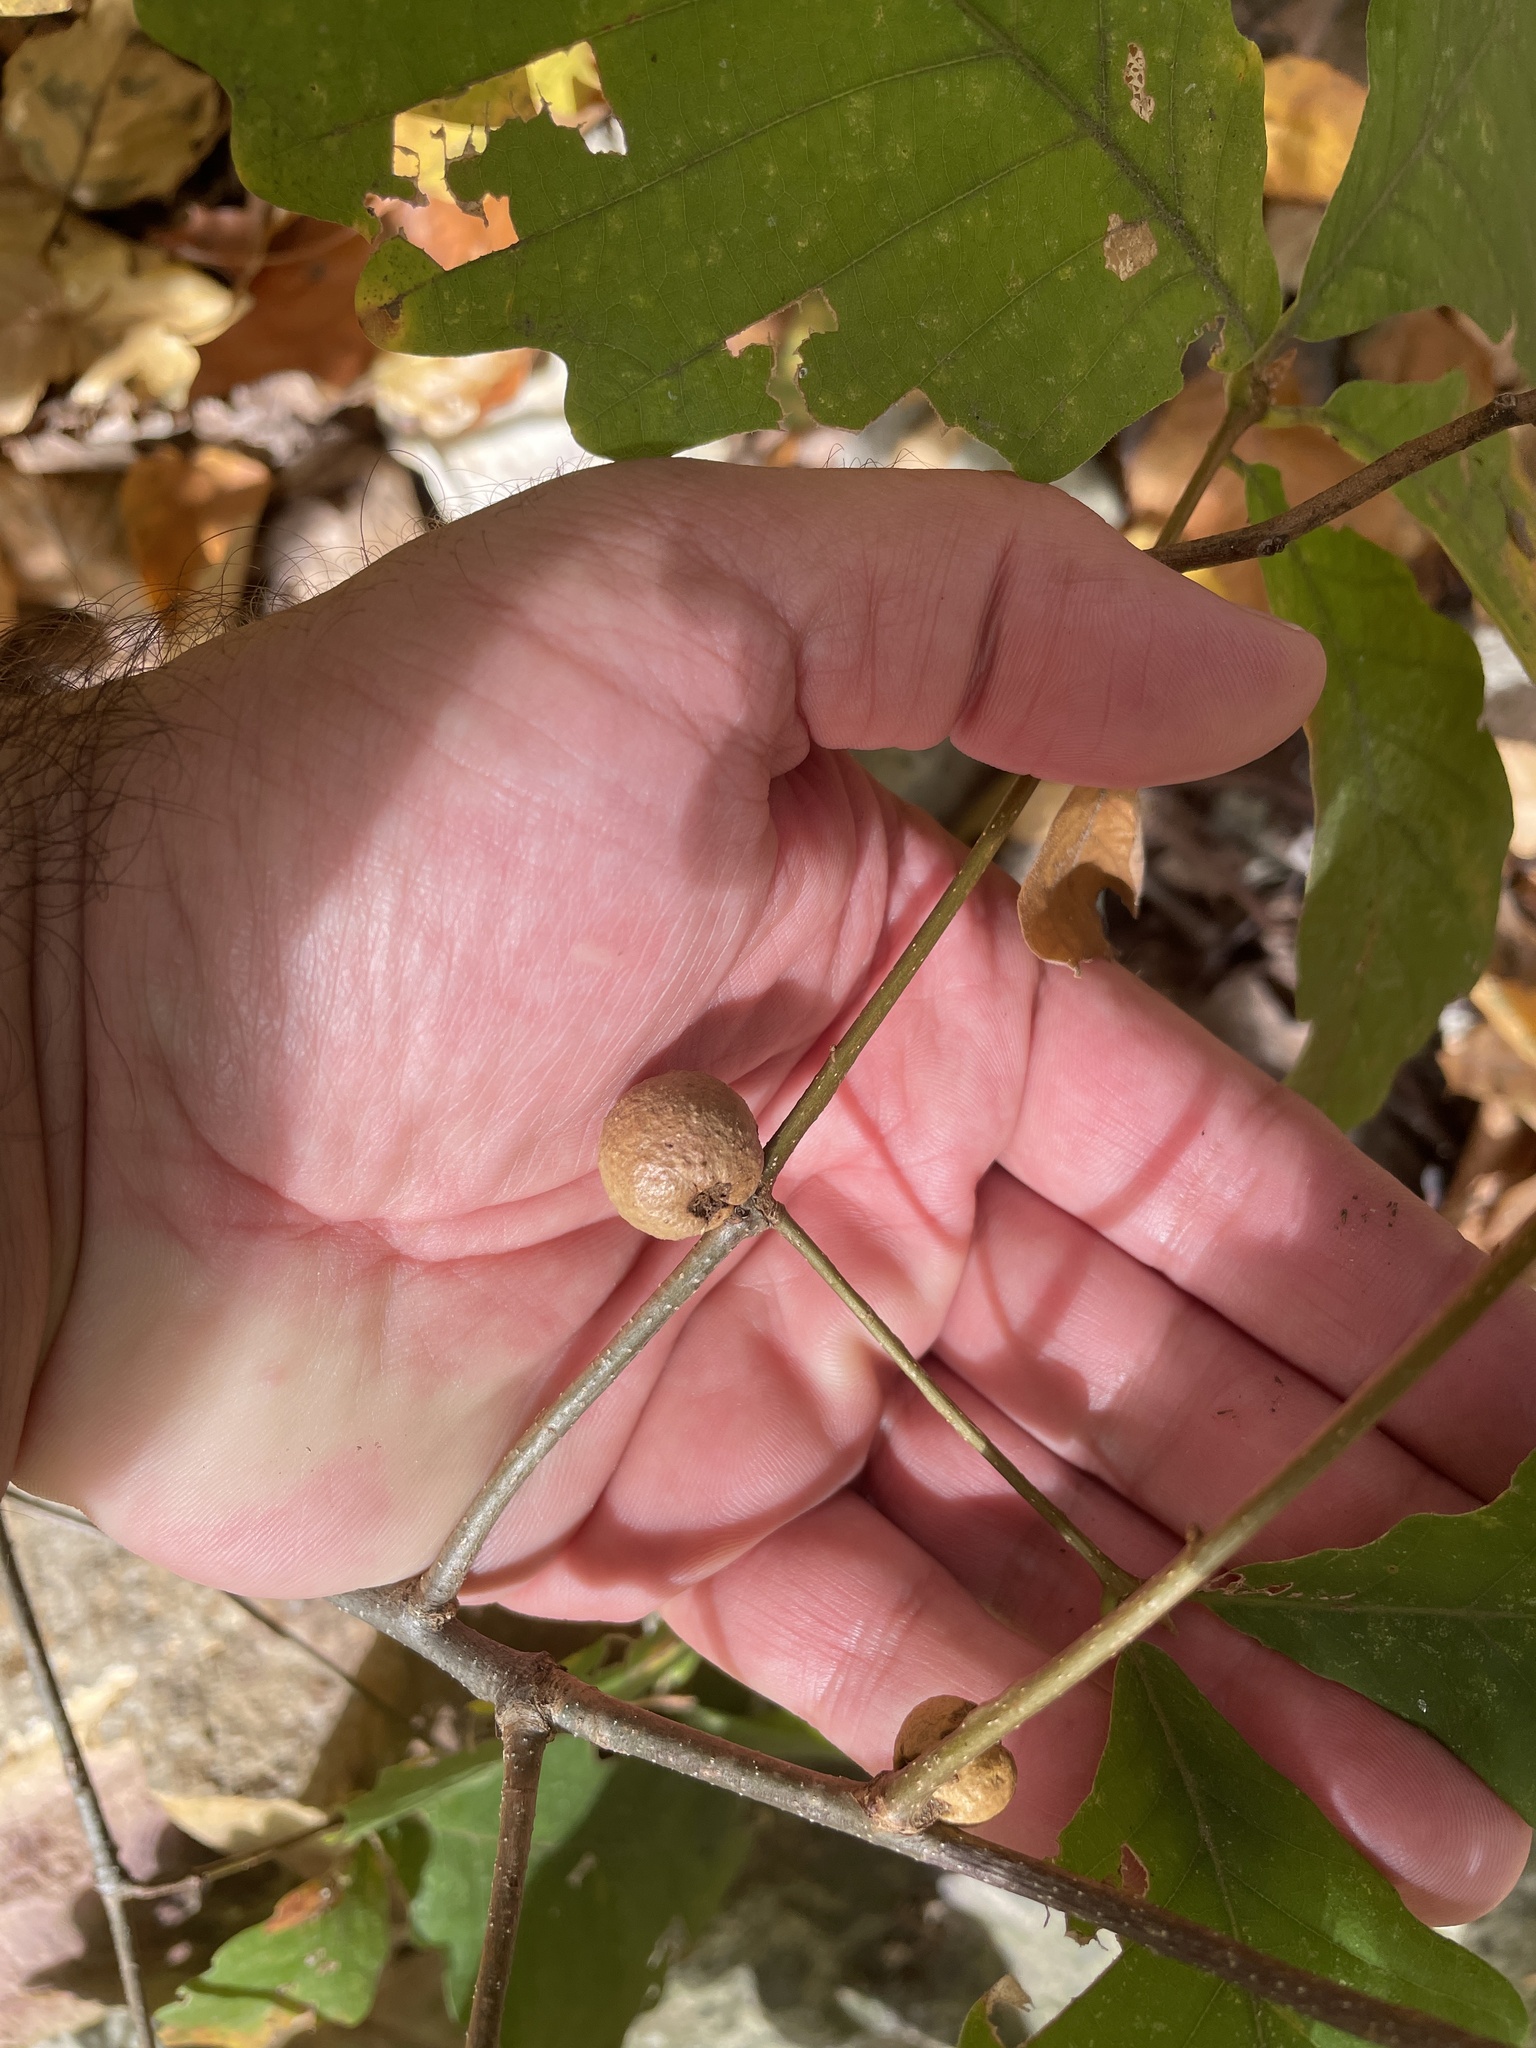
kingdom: Animalia
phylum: Arthropoda
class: Insecta
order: Hymenoptera
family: Cynipidae
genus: Disholcaspis
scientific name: Disholcaspis quercusglobulus
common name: Round bullet gall wasp
